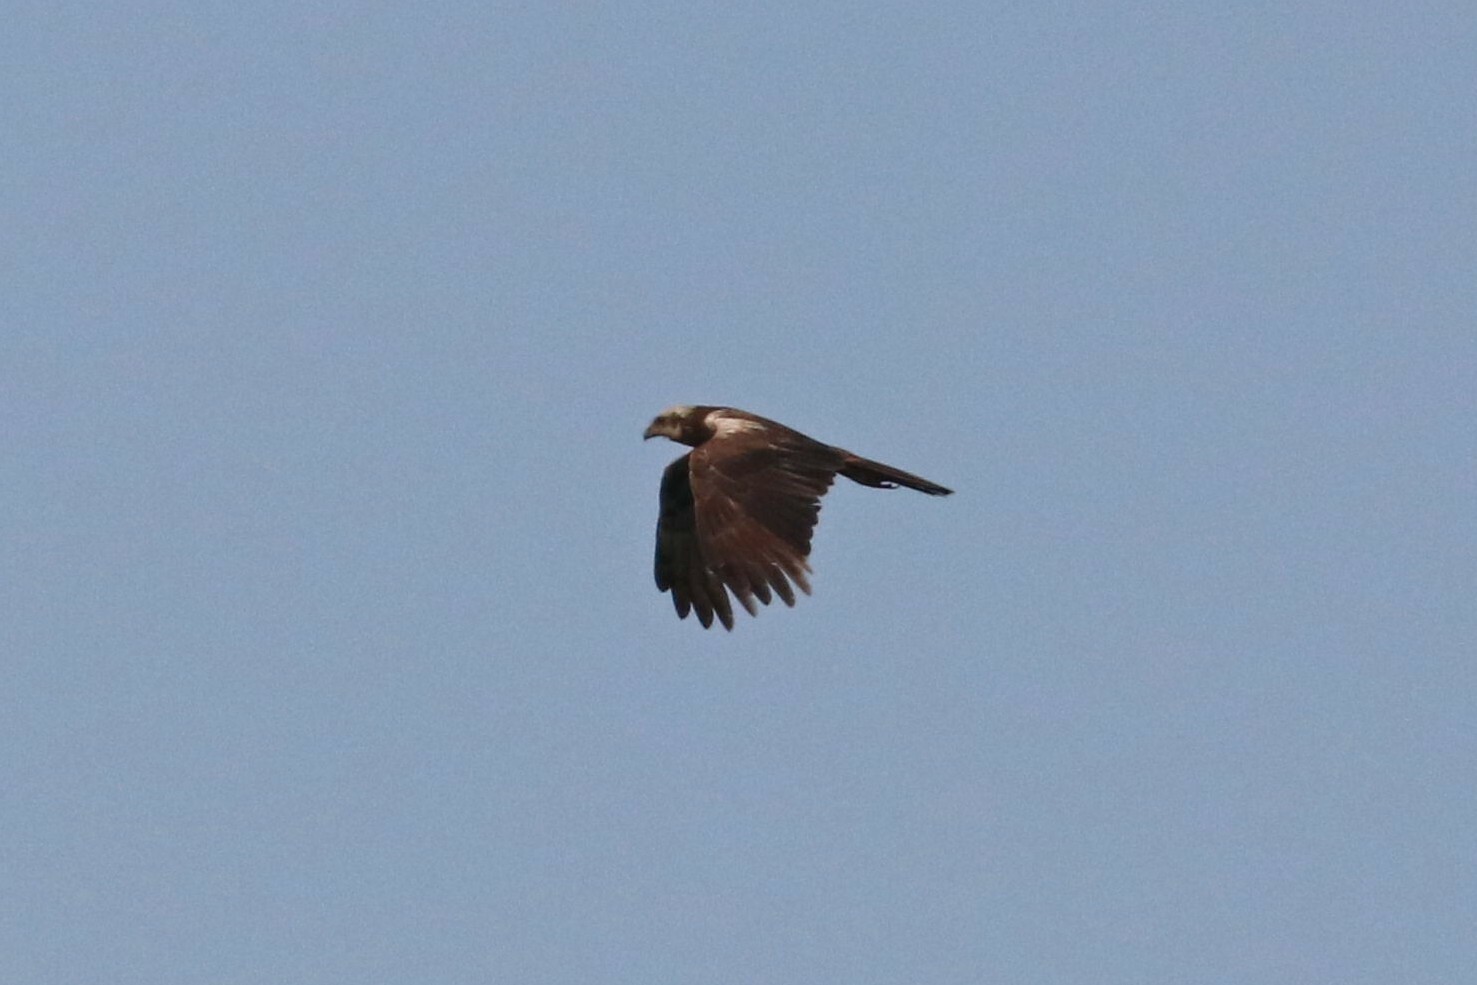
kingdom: Animalia
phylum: Chordata
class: Aves
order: Accipitriformes
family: Accipitridae
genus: Circus
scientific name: Circus aeruginosus
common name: Western marsh harrier
